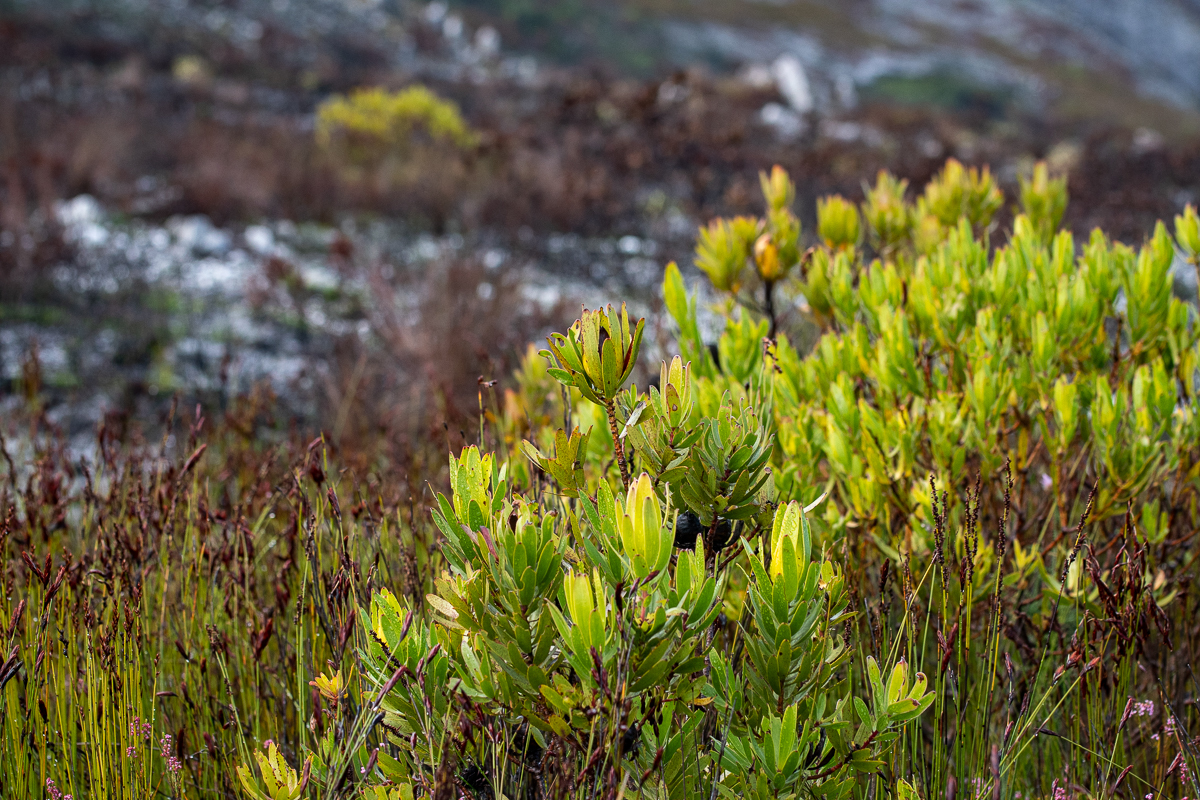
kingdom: Plantae
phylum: Tracheophyta
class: Magnoliopsida
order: Proteales
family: Proteaceae
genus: Leucadendron
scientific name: Leucadendron laureolum
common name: Golden sunshinebush
